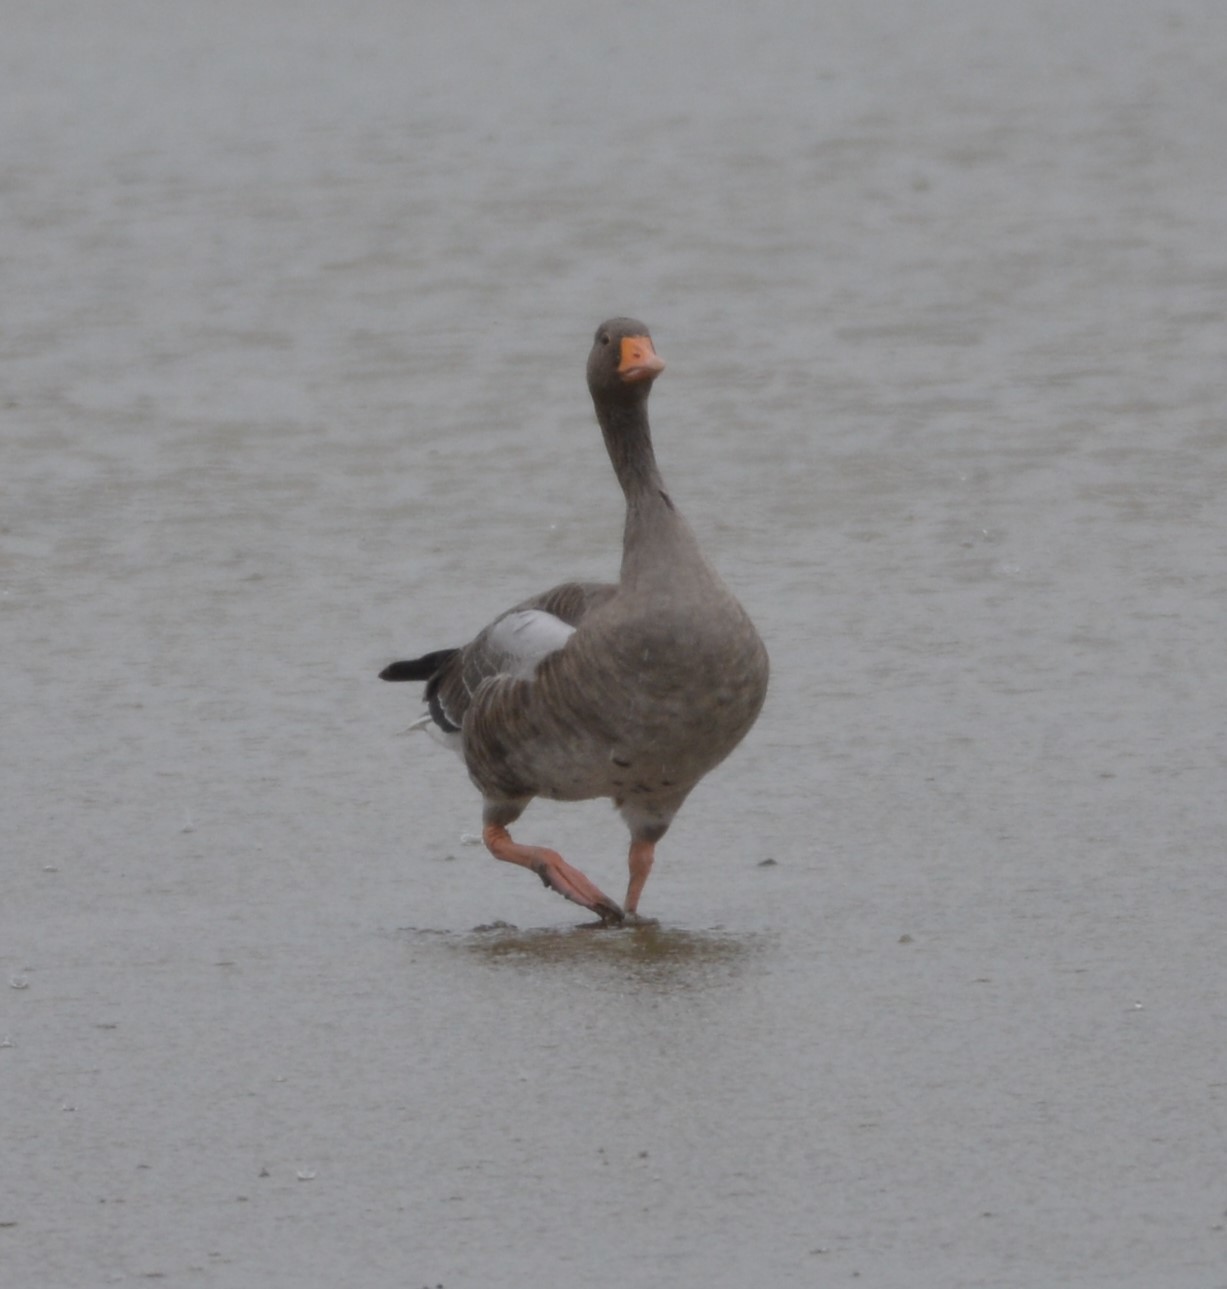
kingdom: Animalia
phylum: Chordata
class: Aves
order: Anseriformes
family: Anatidae
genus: Anser
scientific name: Anser anser
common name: Greylag goose
